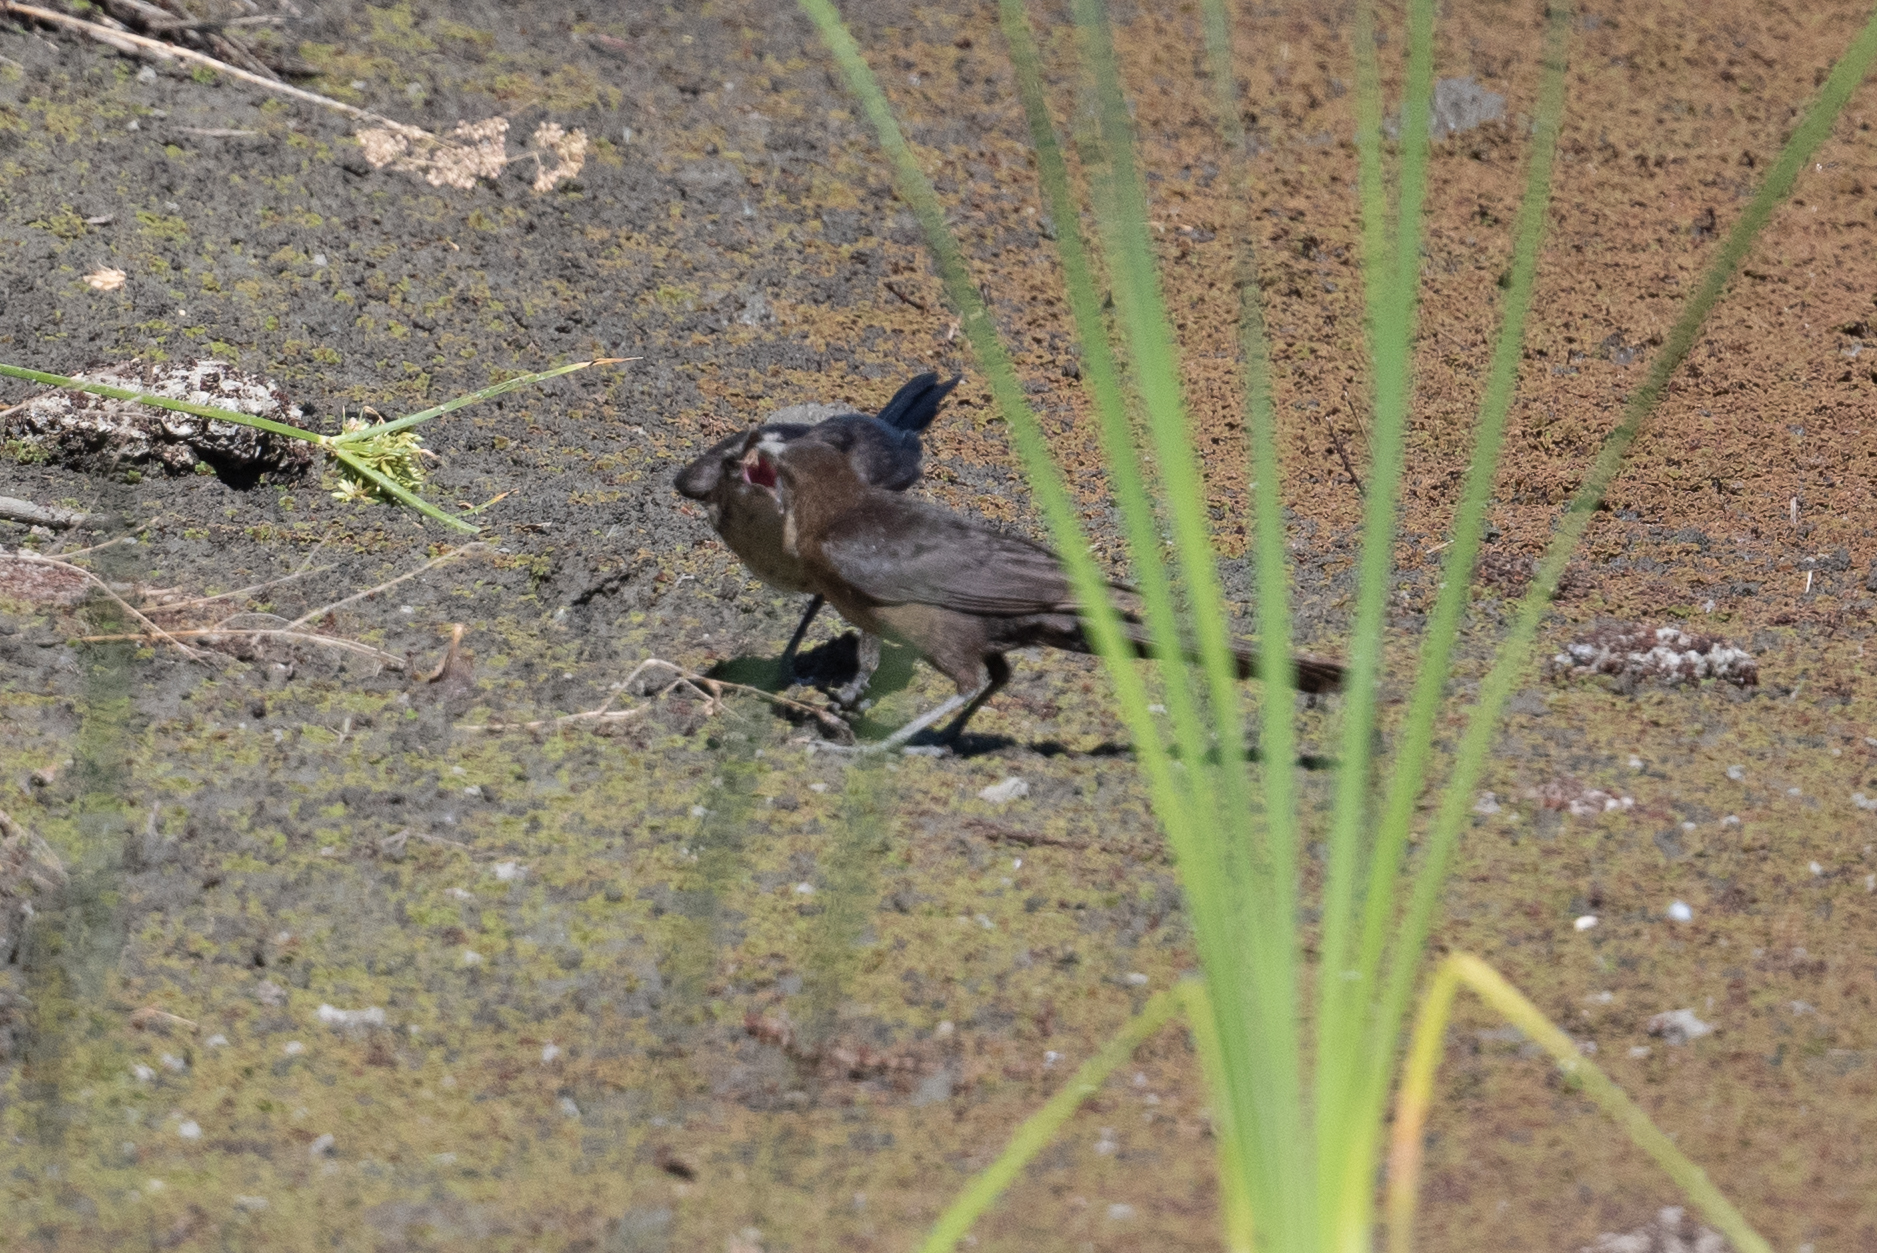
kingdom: Animalia
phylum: Chordata
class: Aves
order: Passeriformes
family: Icteridae
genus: Quiscalus
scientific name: Quiscalus mexicanus
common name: Great-tailed grackle
